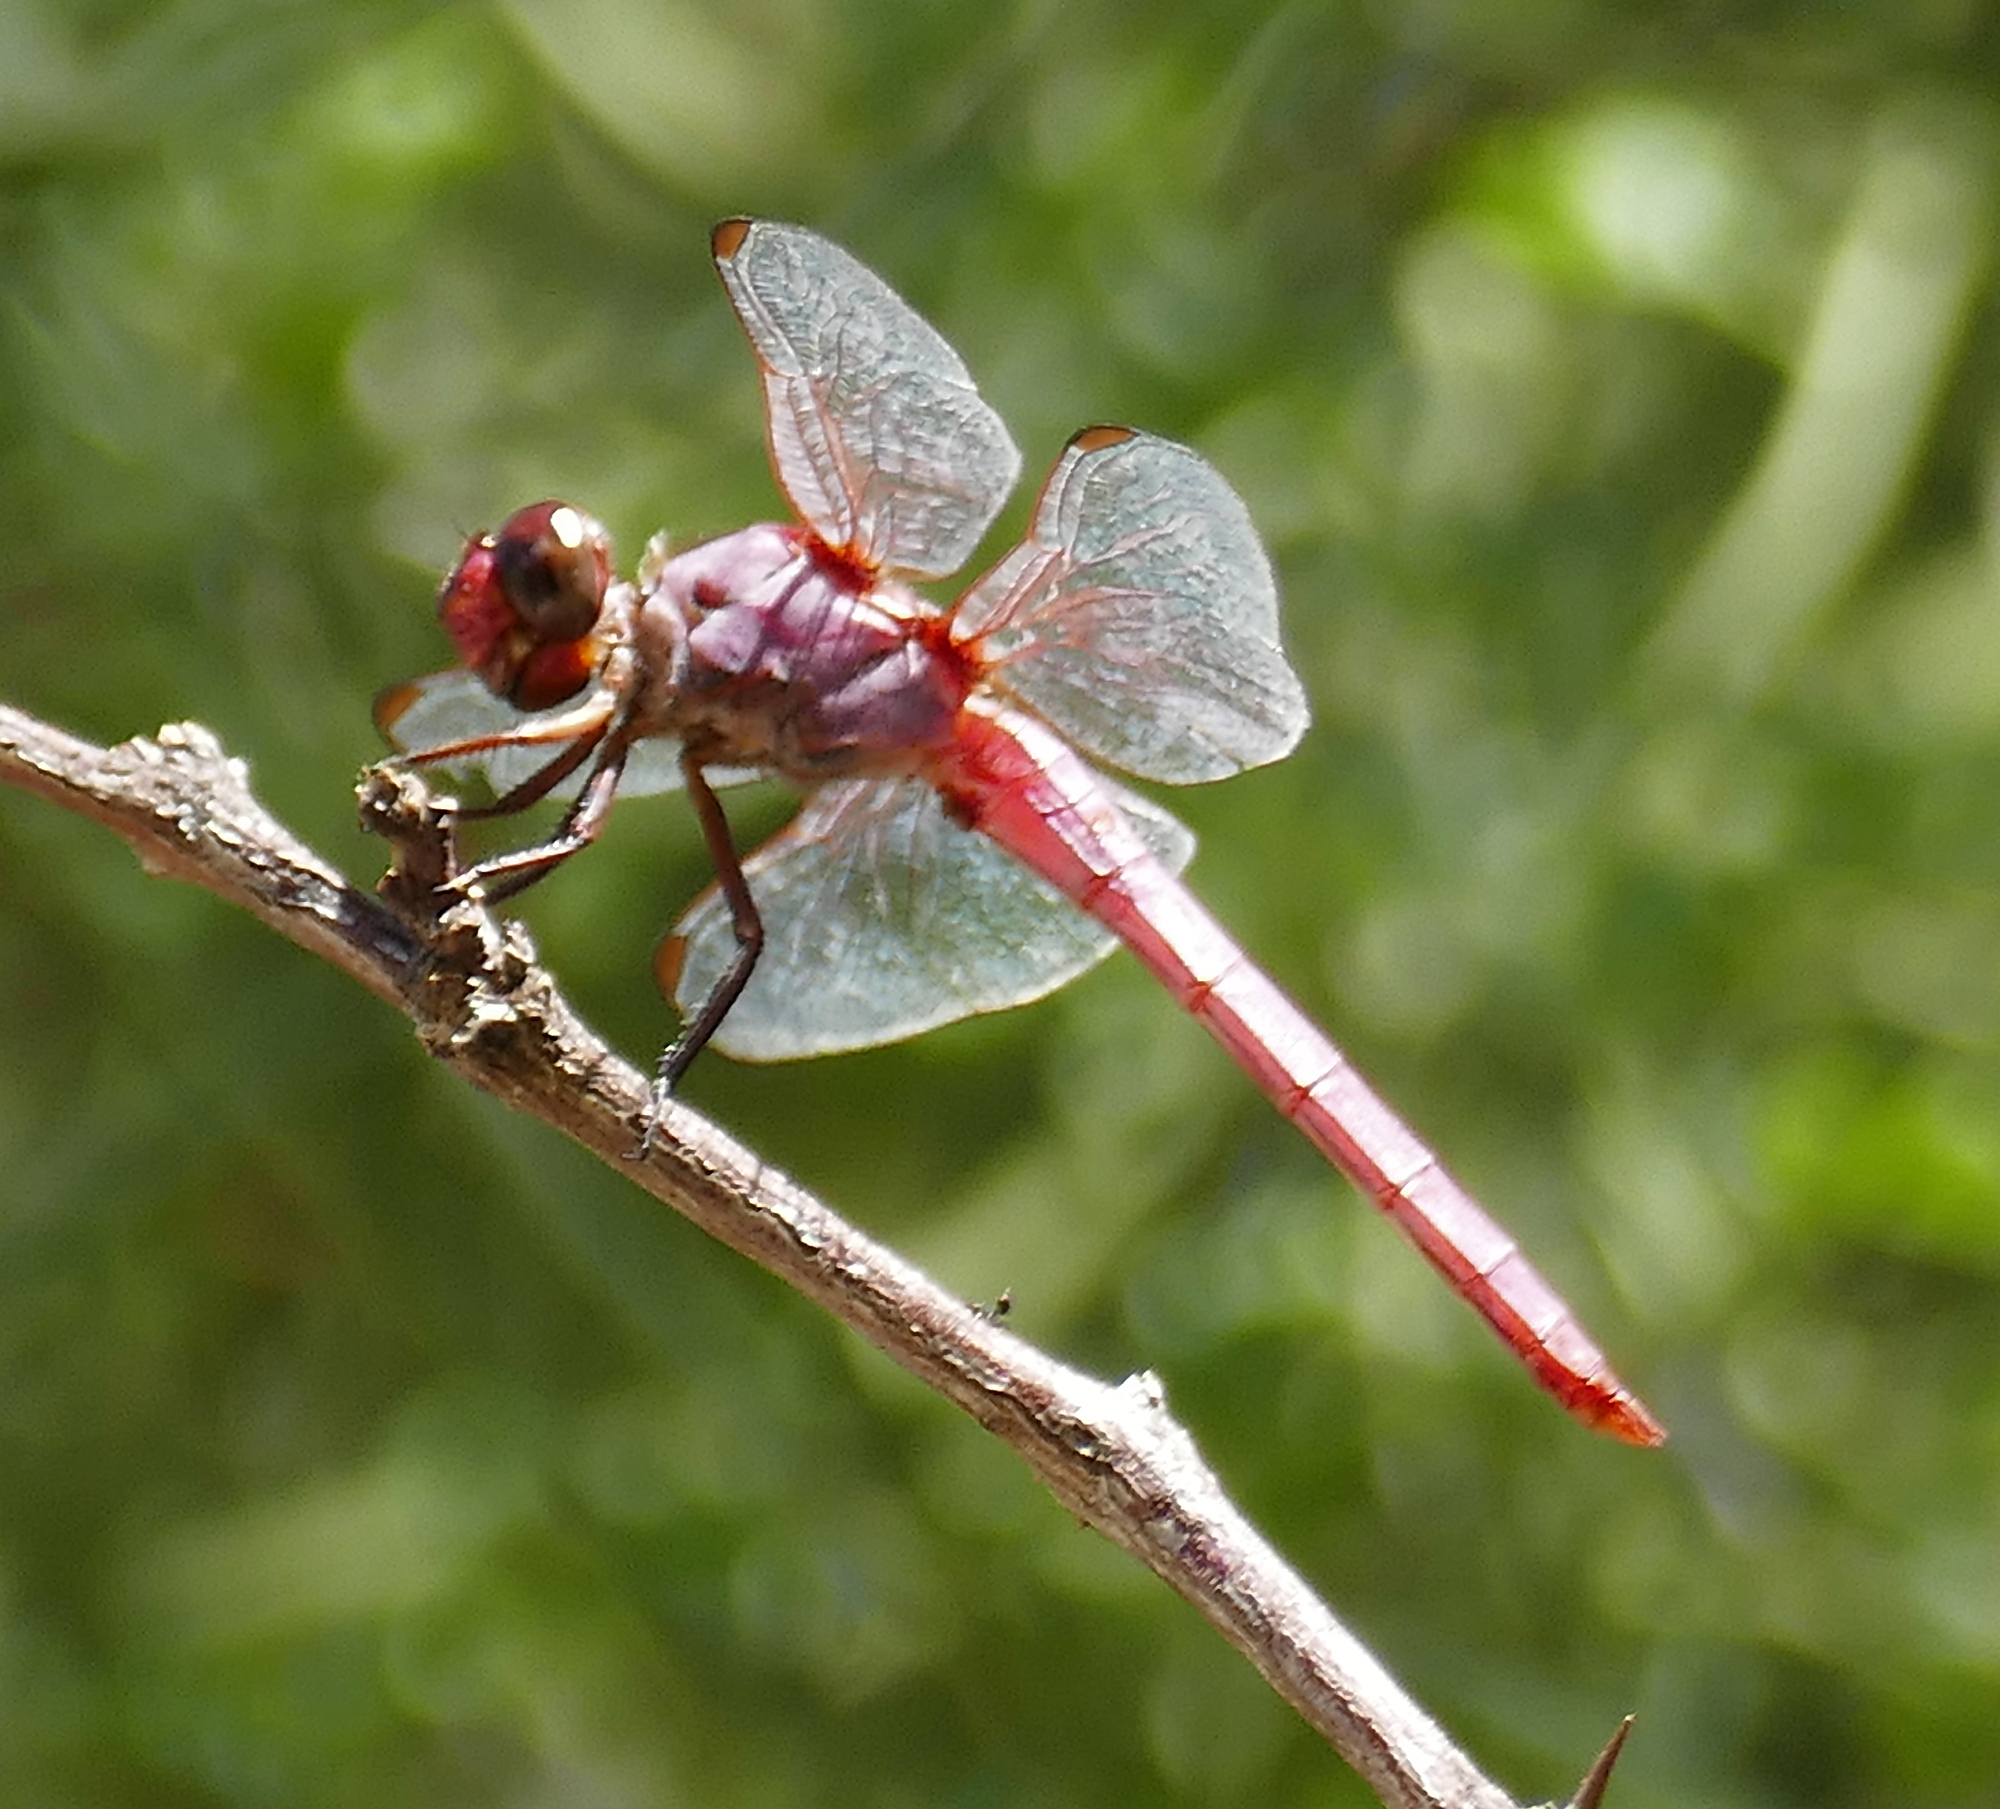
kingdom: Animalia
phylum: Arthropoda
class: Insecta
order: Odonata
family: Libellulidae
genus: Orthemis
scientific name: Orthemis ferruginea
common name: Roseate skimmer
